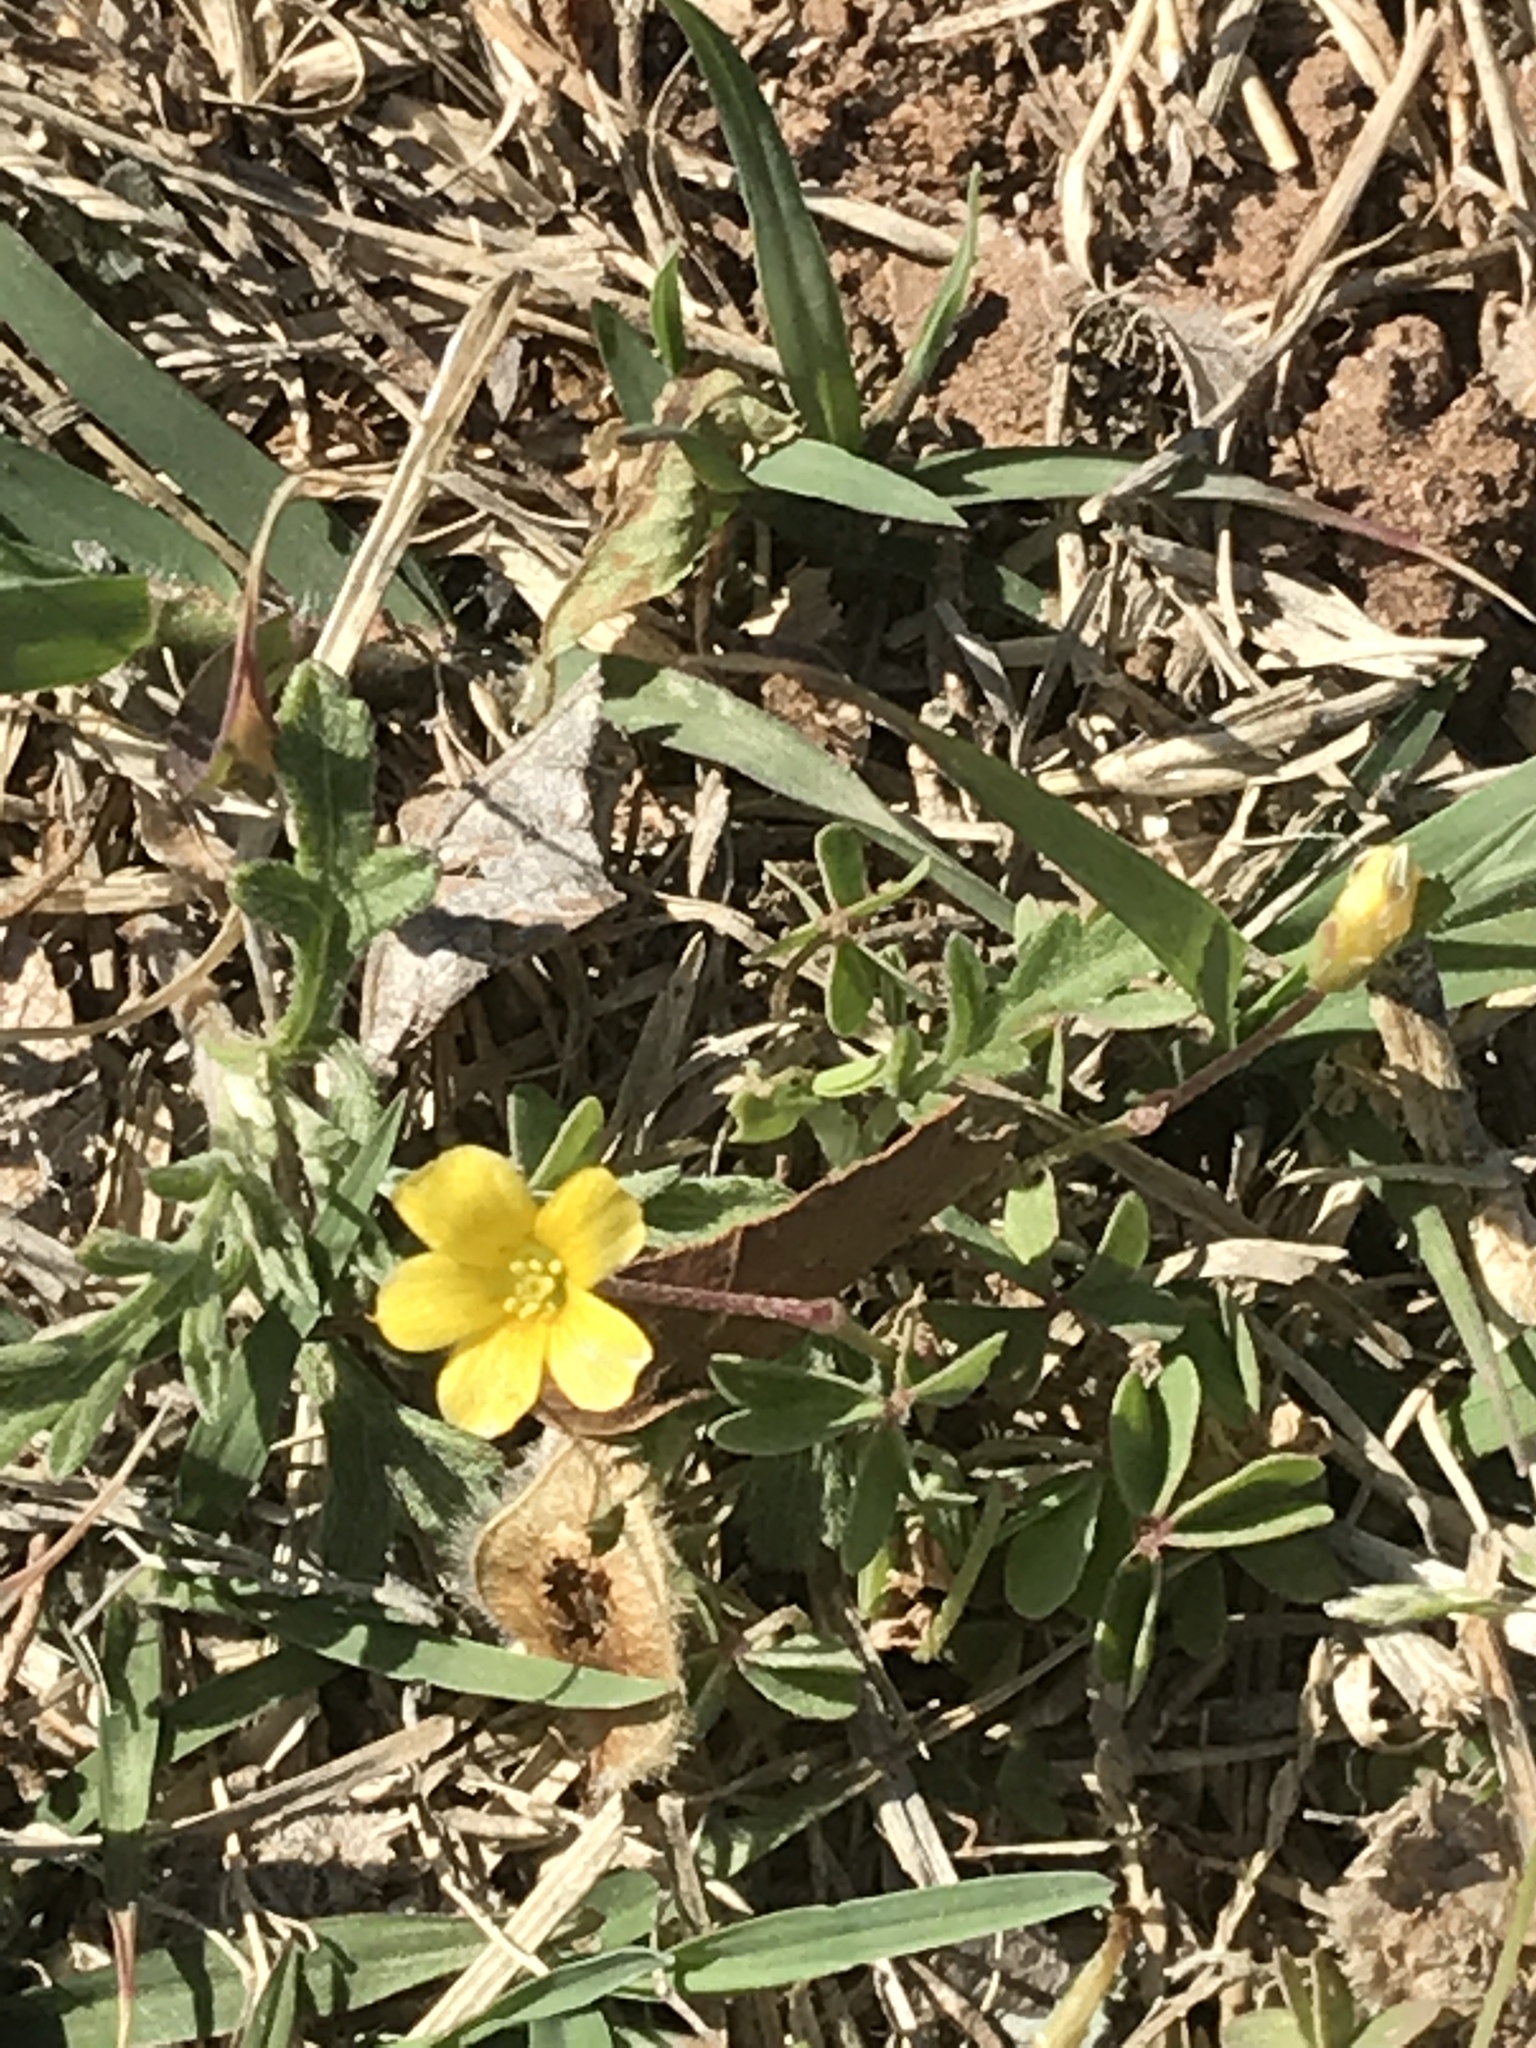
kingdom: Plantae
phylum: Tracheophyta
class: Magnoliopsida
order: Oxalidales
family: Oxalidaceae
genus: Oxalis
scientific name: Oxalis corniculata
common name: Procumbent yellow-sorrel
